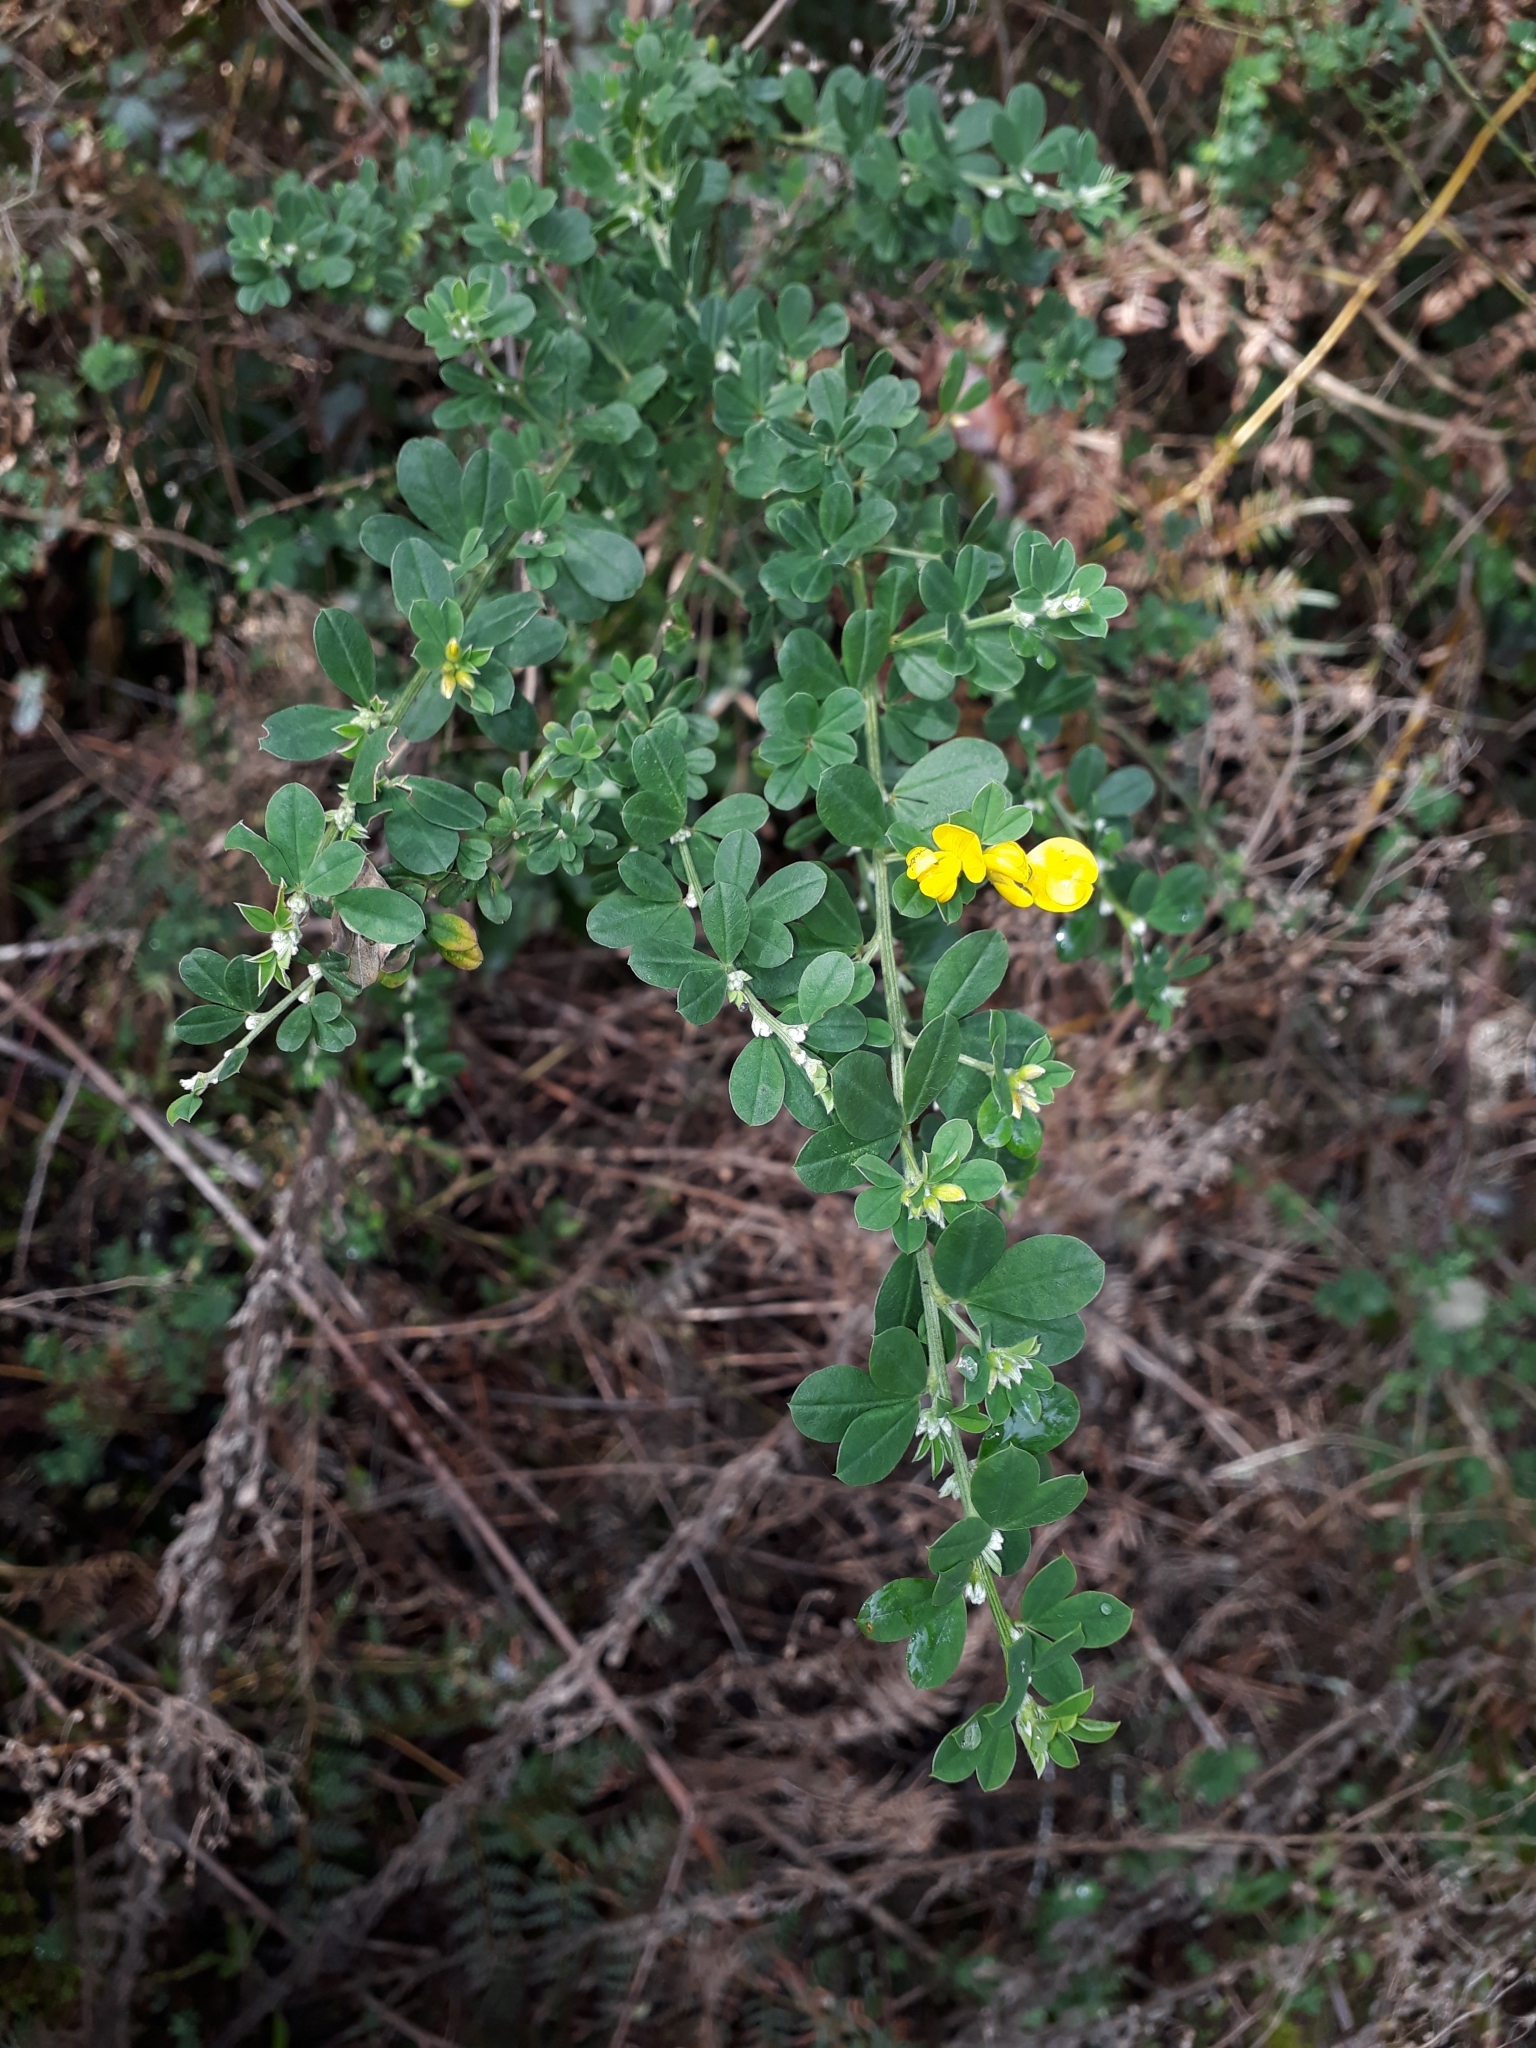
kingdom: Plantae
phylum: Tracheophyta
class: Magnoliopsida
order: Fabales
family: Fabaceae
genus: Genista
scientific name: Genista monspessulana
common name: Montpellier broom
